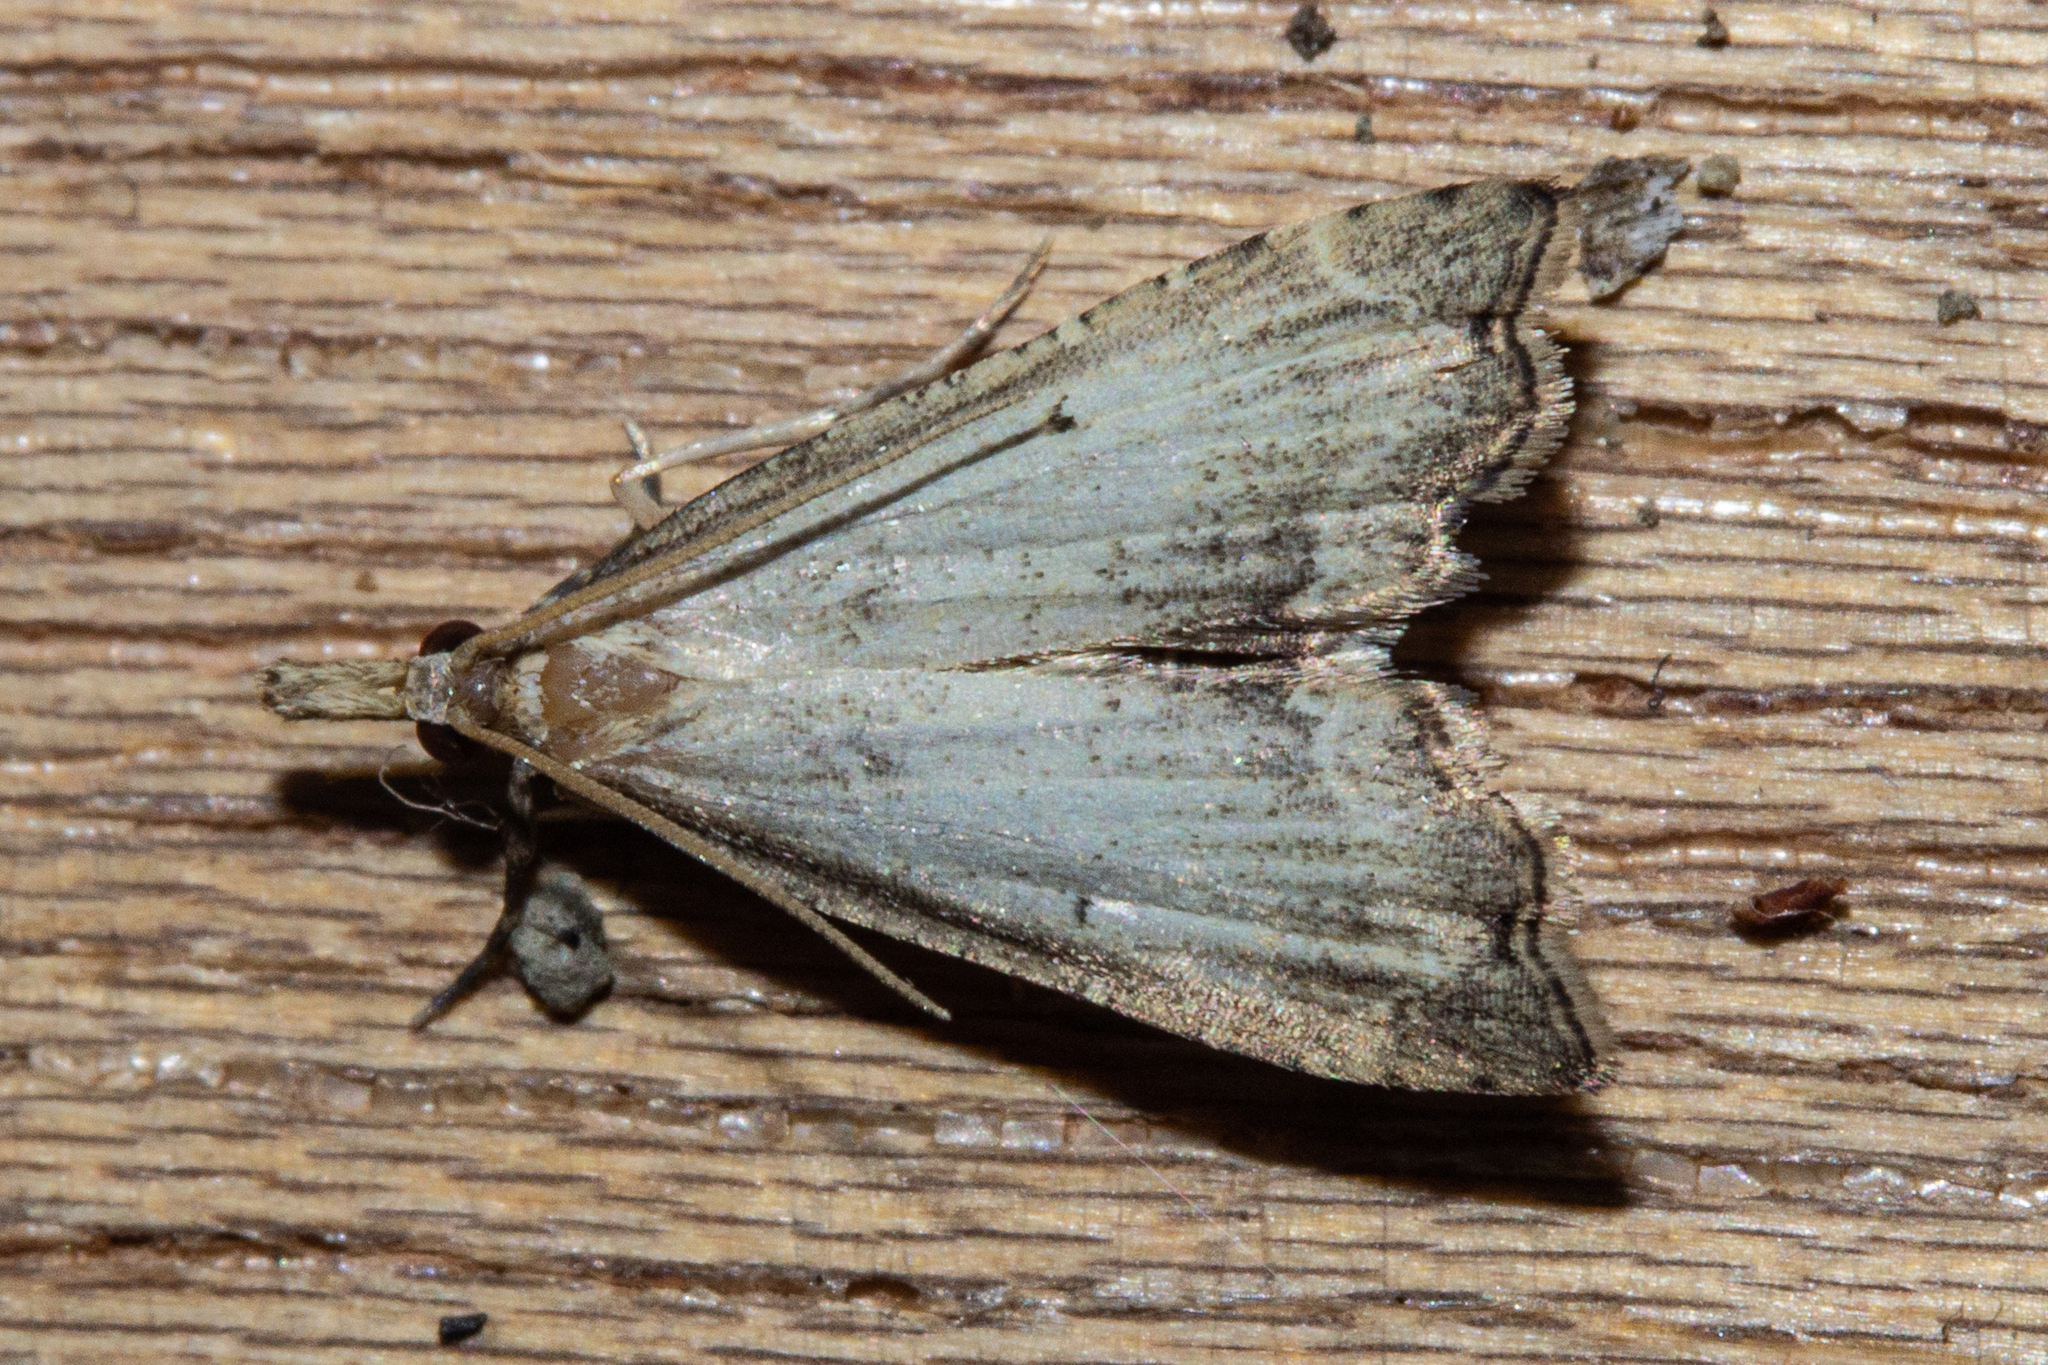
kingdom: Animalia
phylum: Arthropoda
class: Insecta
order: Lepidoptera
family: Crambidae
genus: Diplopseustis
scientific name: Diplopseustis perieresalis
